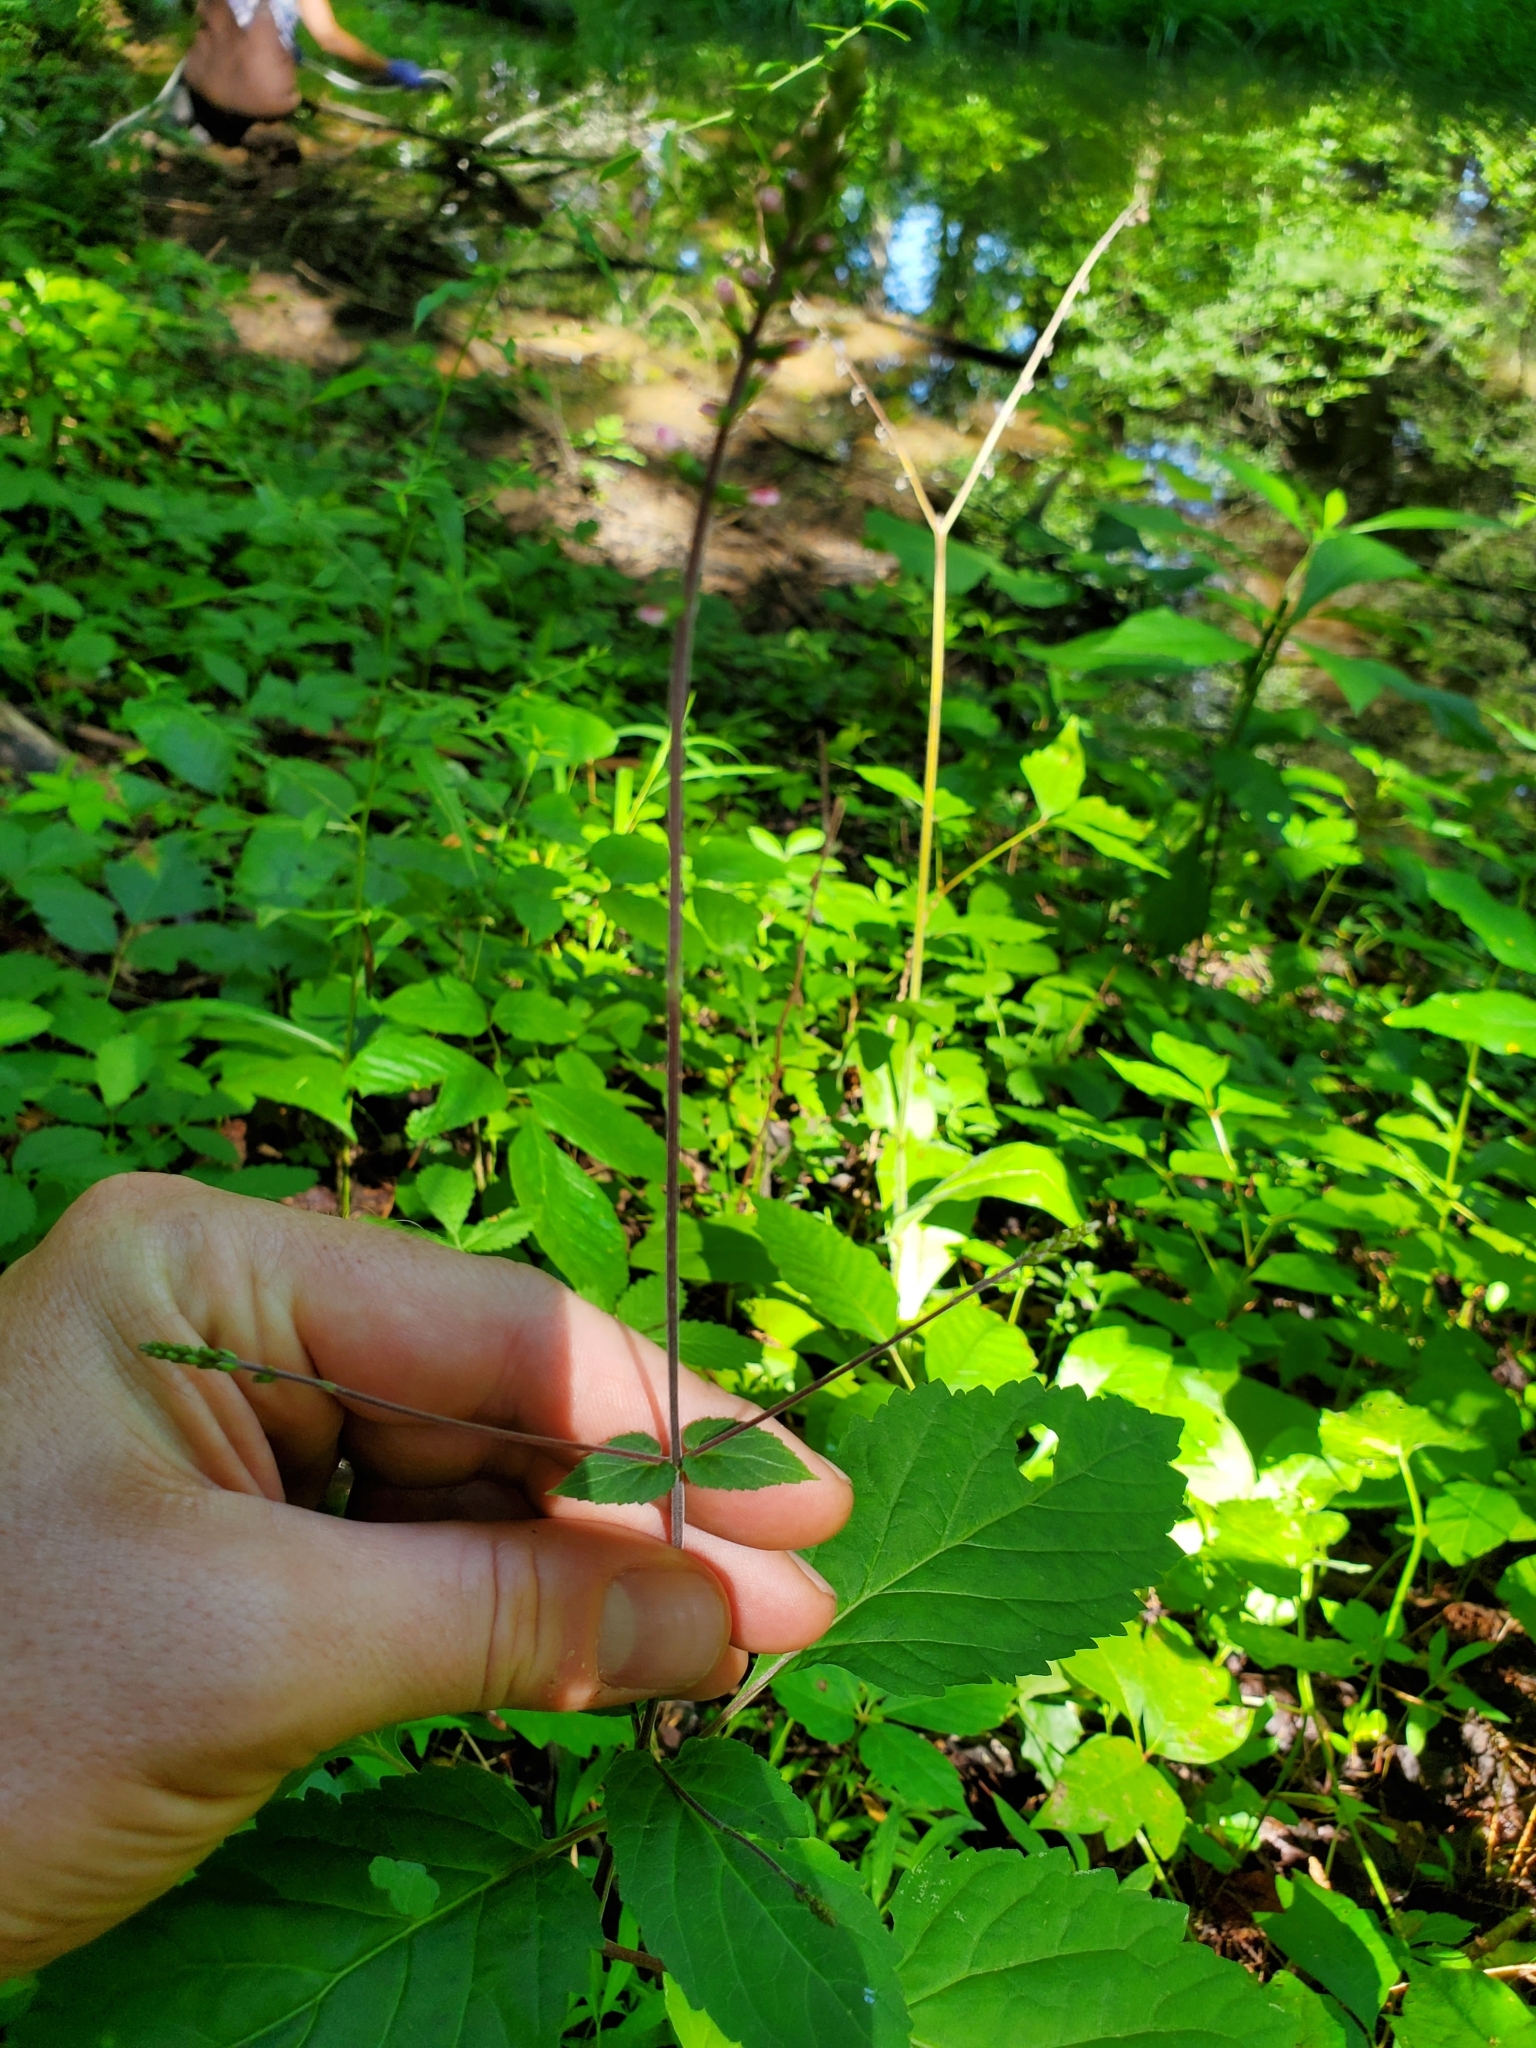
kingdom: Plantae
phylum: Tracheophyta
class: Magnoliopsida
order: Lamiales
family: Phrymaceae
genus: Phryma
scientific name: Phryma leptostachya
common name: American lopseed
